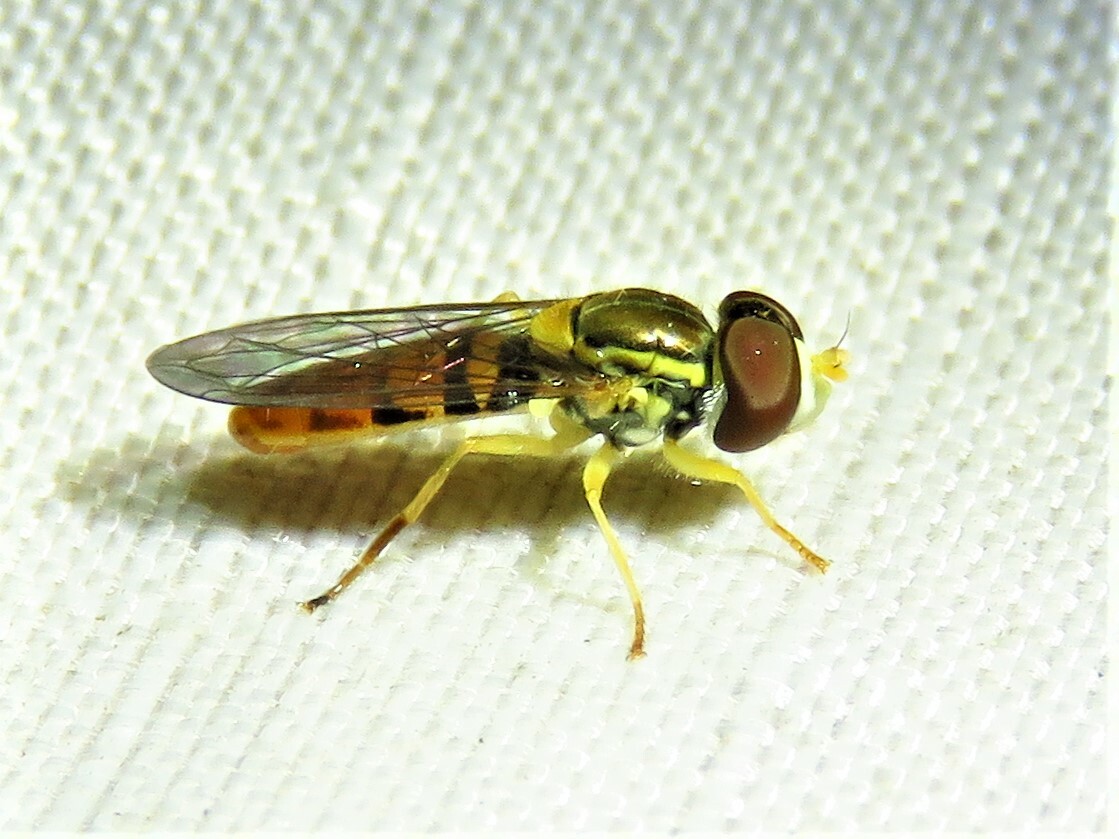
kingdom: Animalia
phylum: Arthropoda
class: Insecta
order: Diptera
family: Syrphidae
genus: Toxomerus
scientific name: Toxomerus marginatus
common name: Syrphid fly
